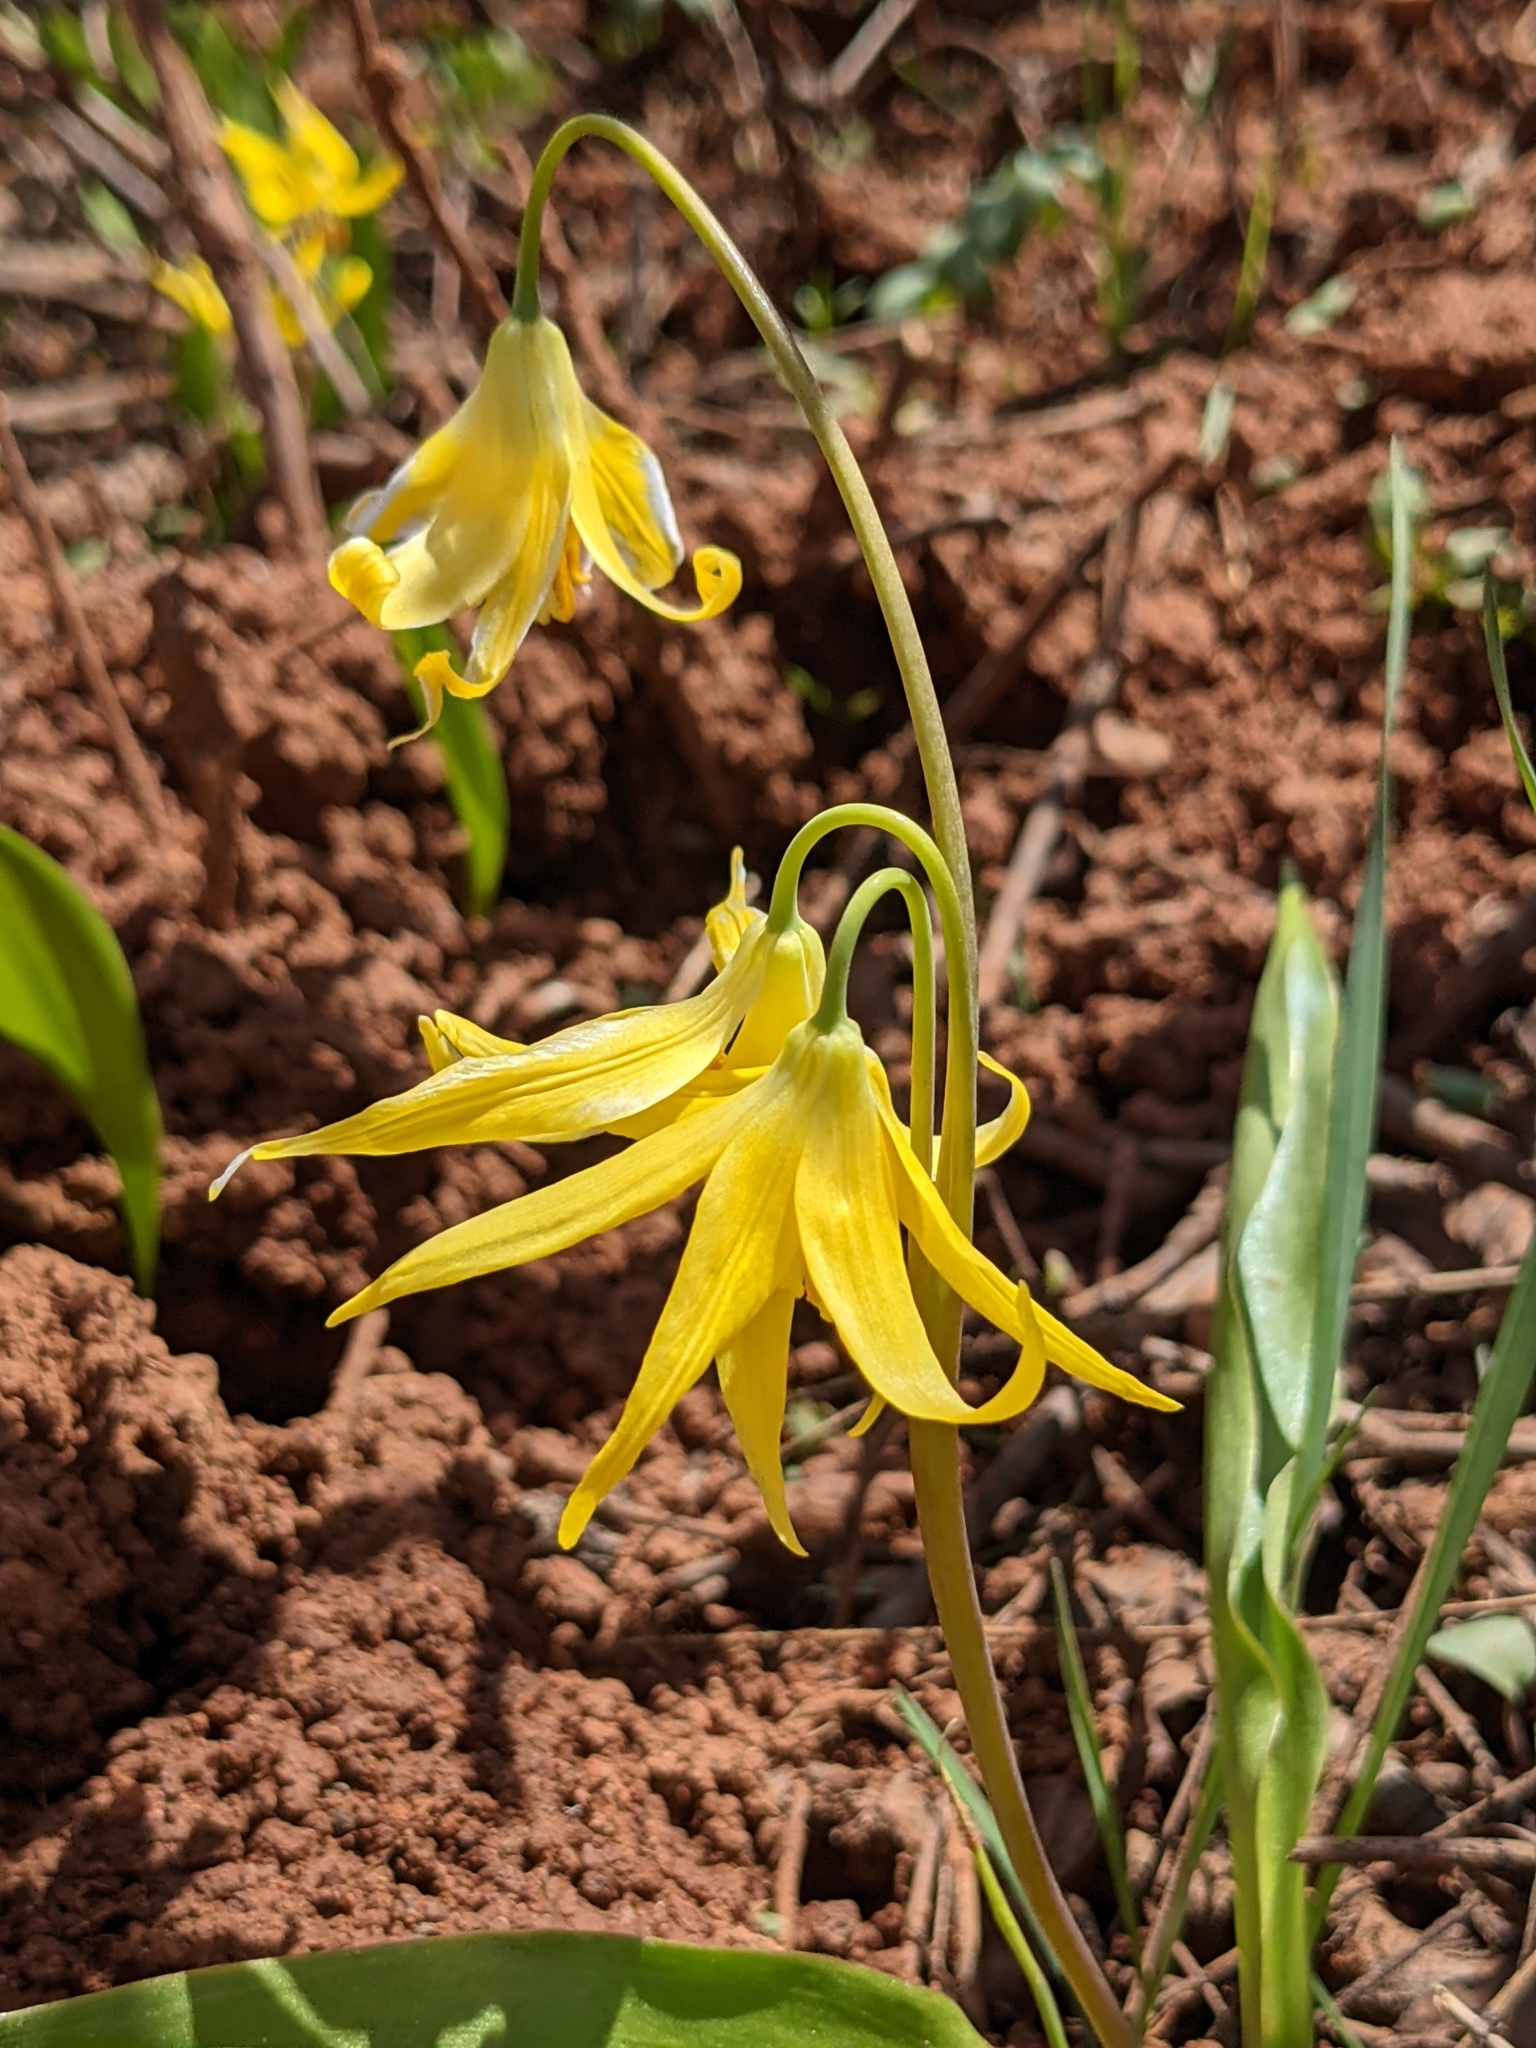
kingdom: Plantae
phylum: Tracheophyta
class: Liliopsida
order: Liliales
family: Liliaceae
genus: Erythronium
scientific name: Erythronium grandiflorum
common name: Avalanche-lily
